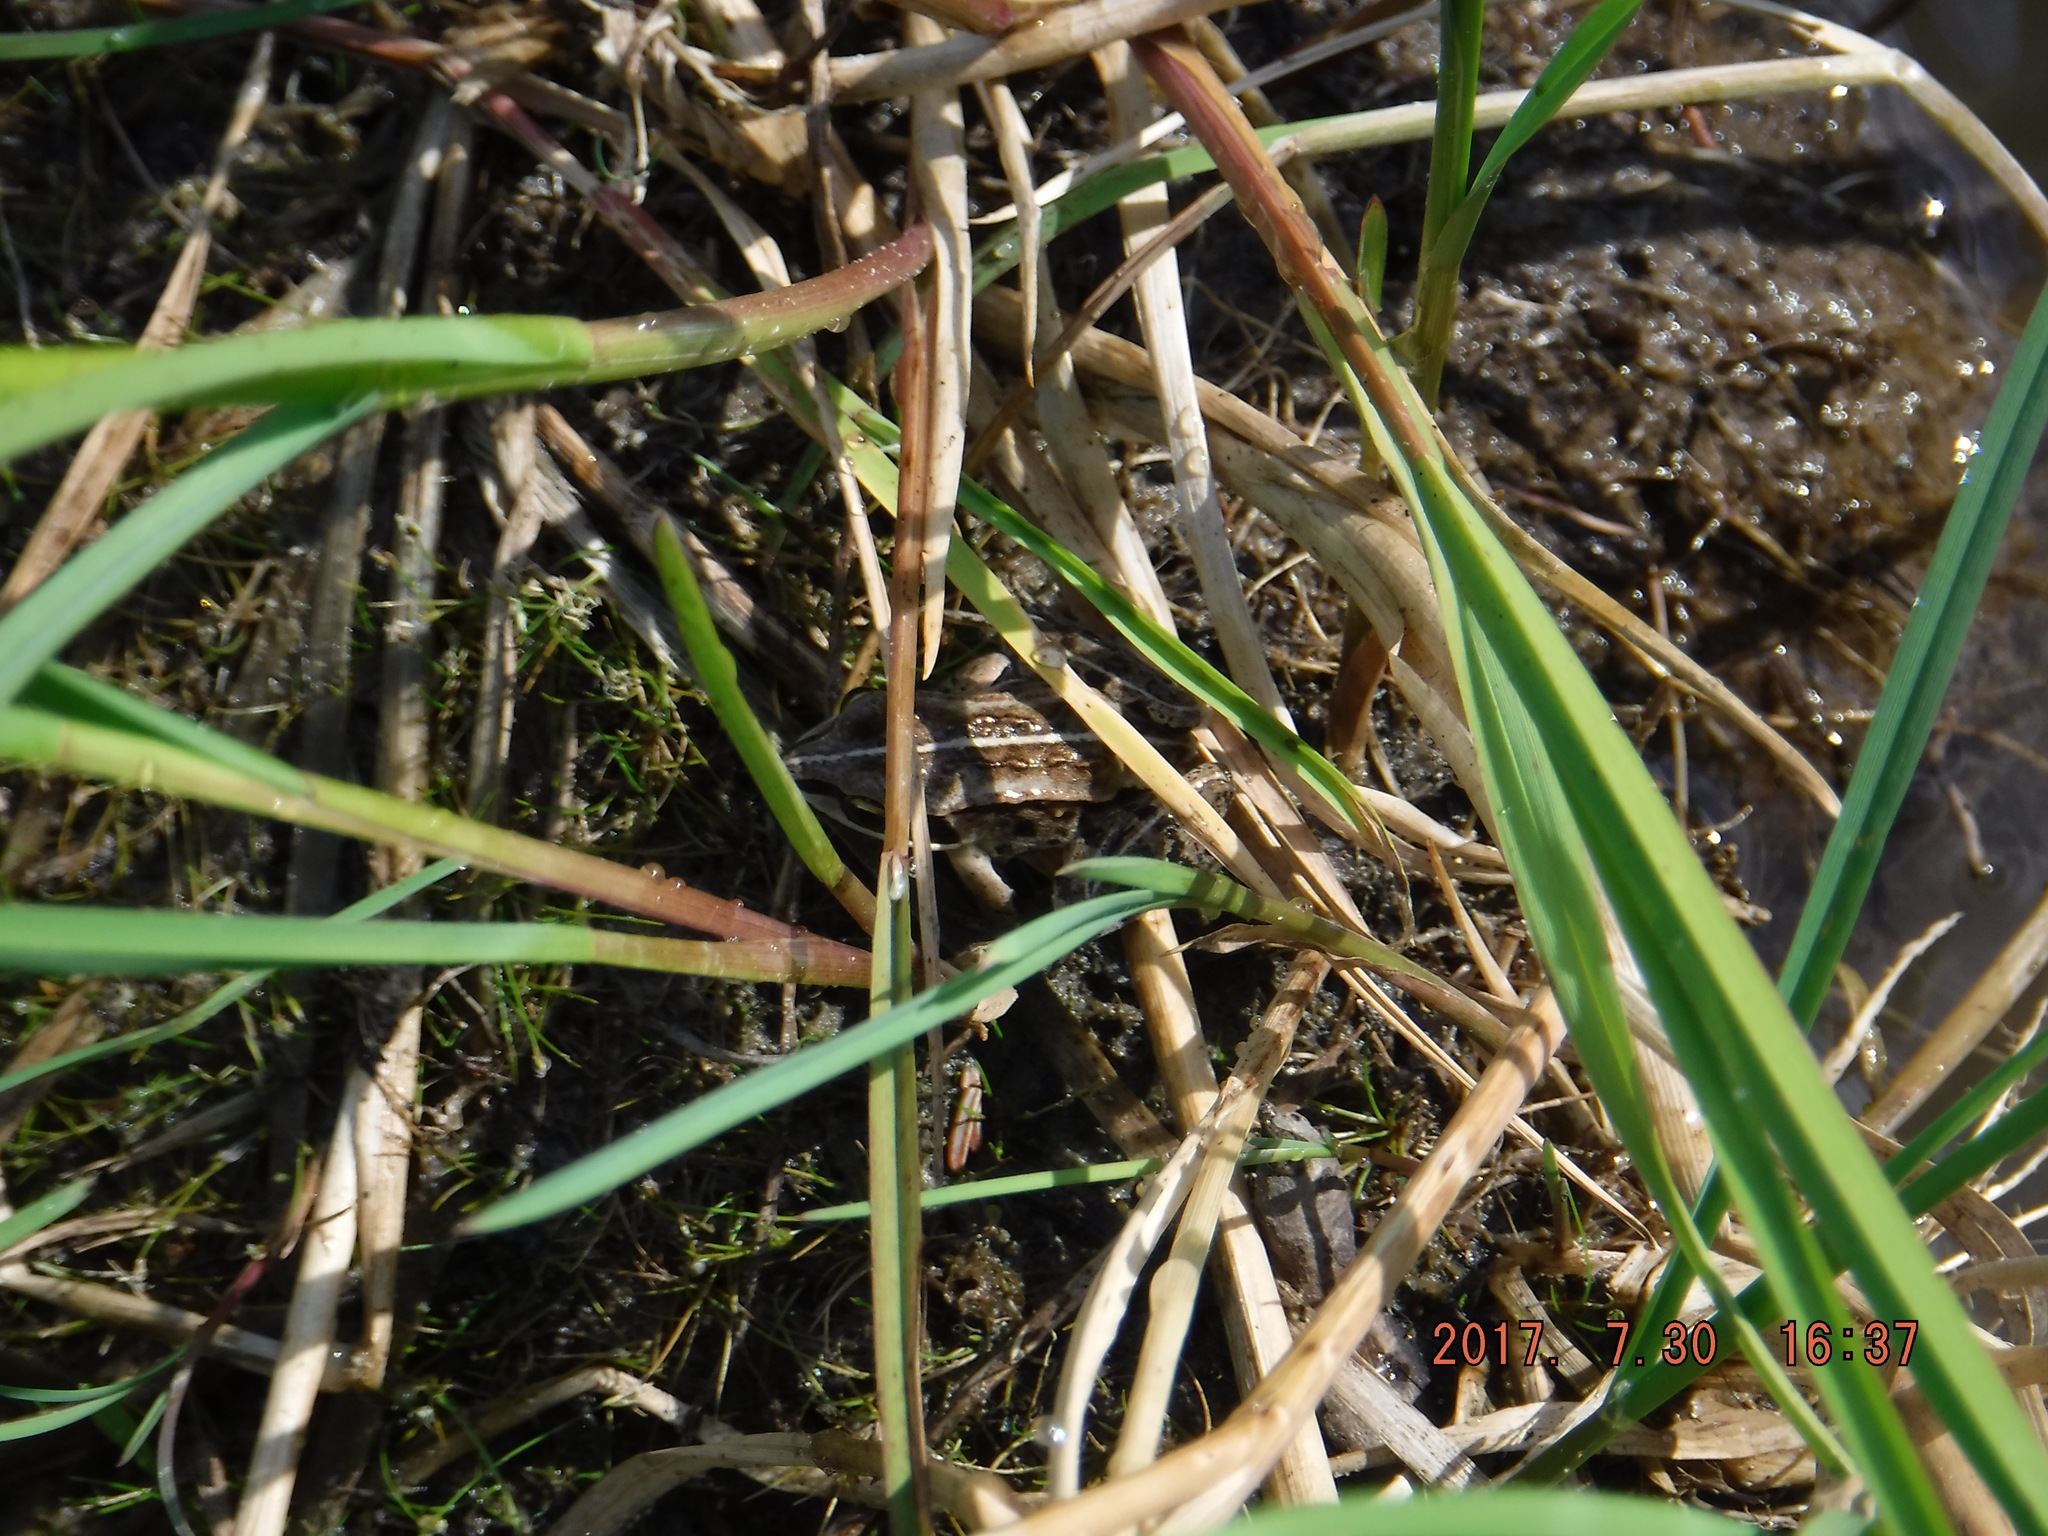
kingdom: Animalia
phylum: Chordata
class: Amphibia
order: Anura
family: Ranidae
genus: Lithobates
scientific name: Lithobates sylvaticus
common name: Wood frog
